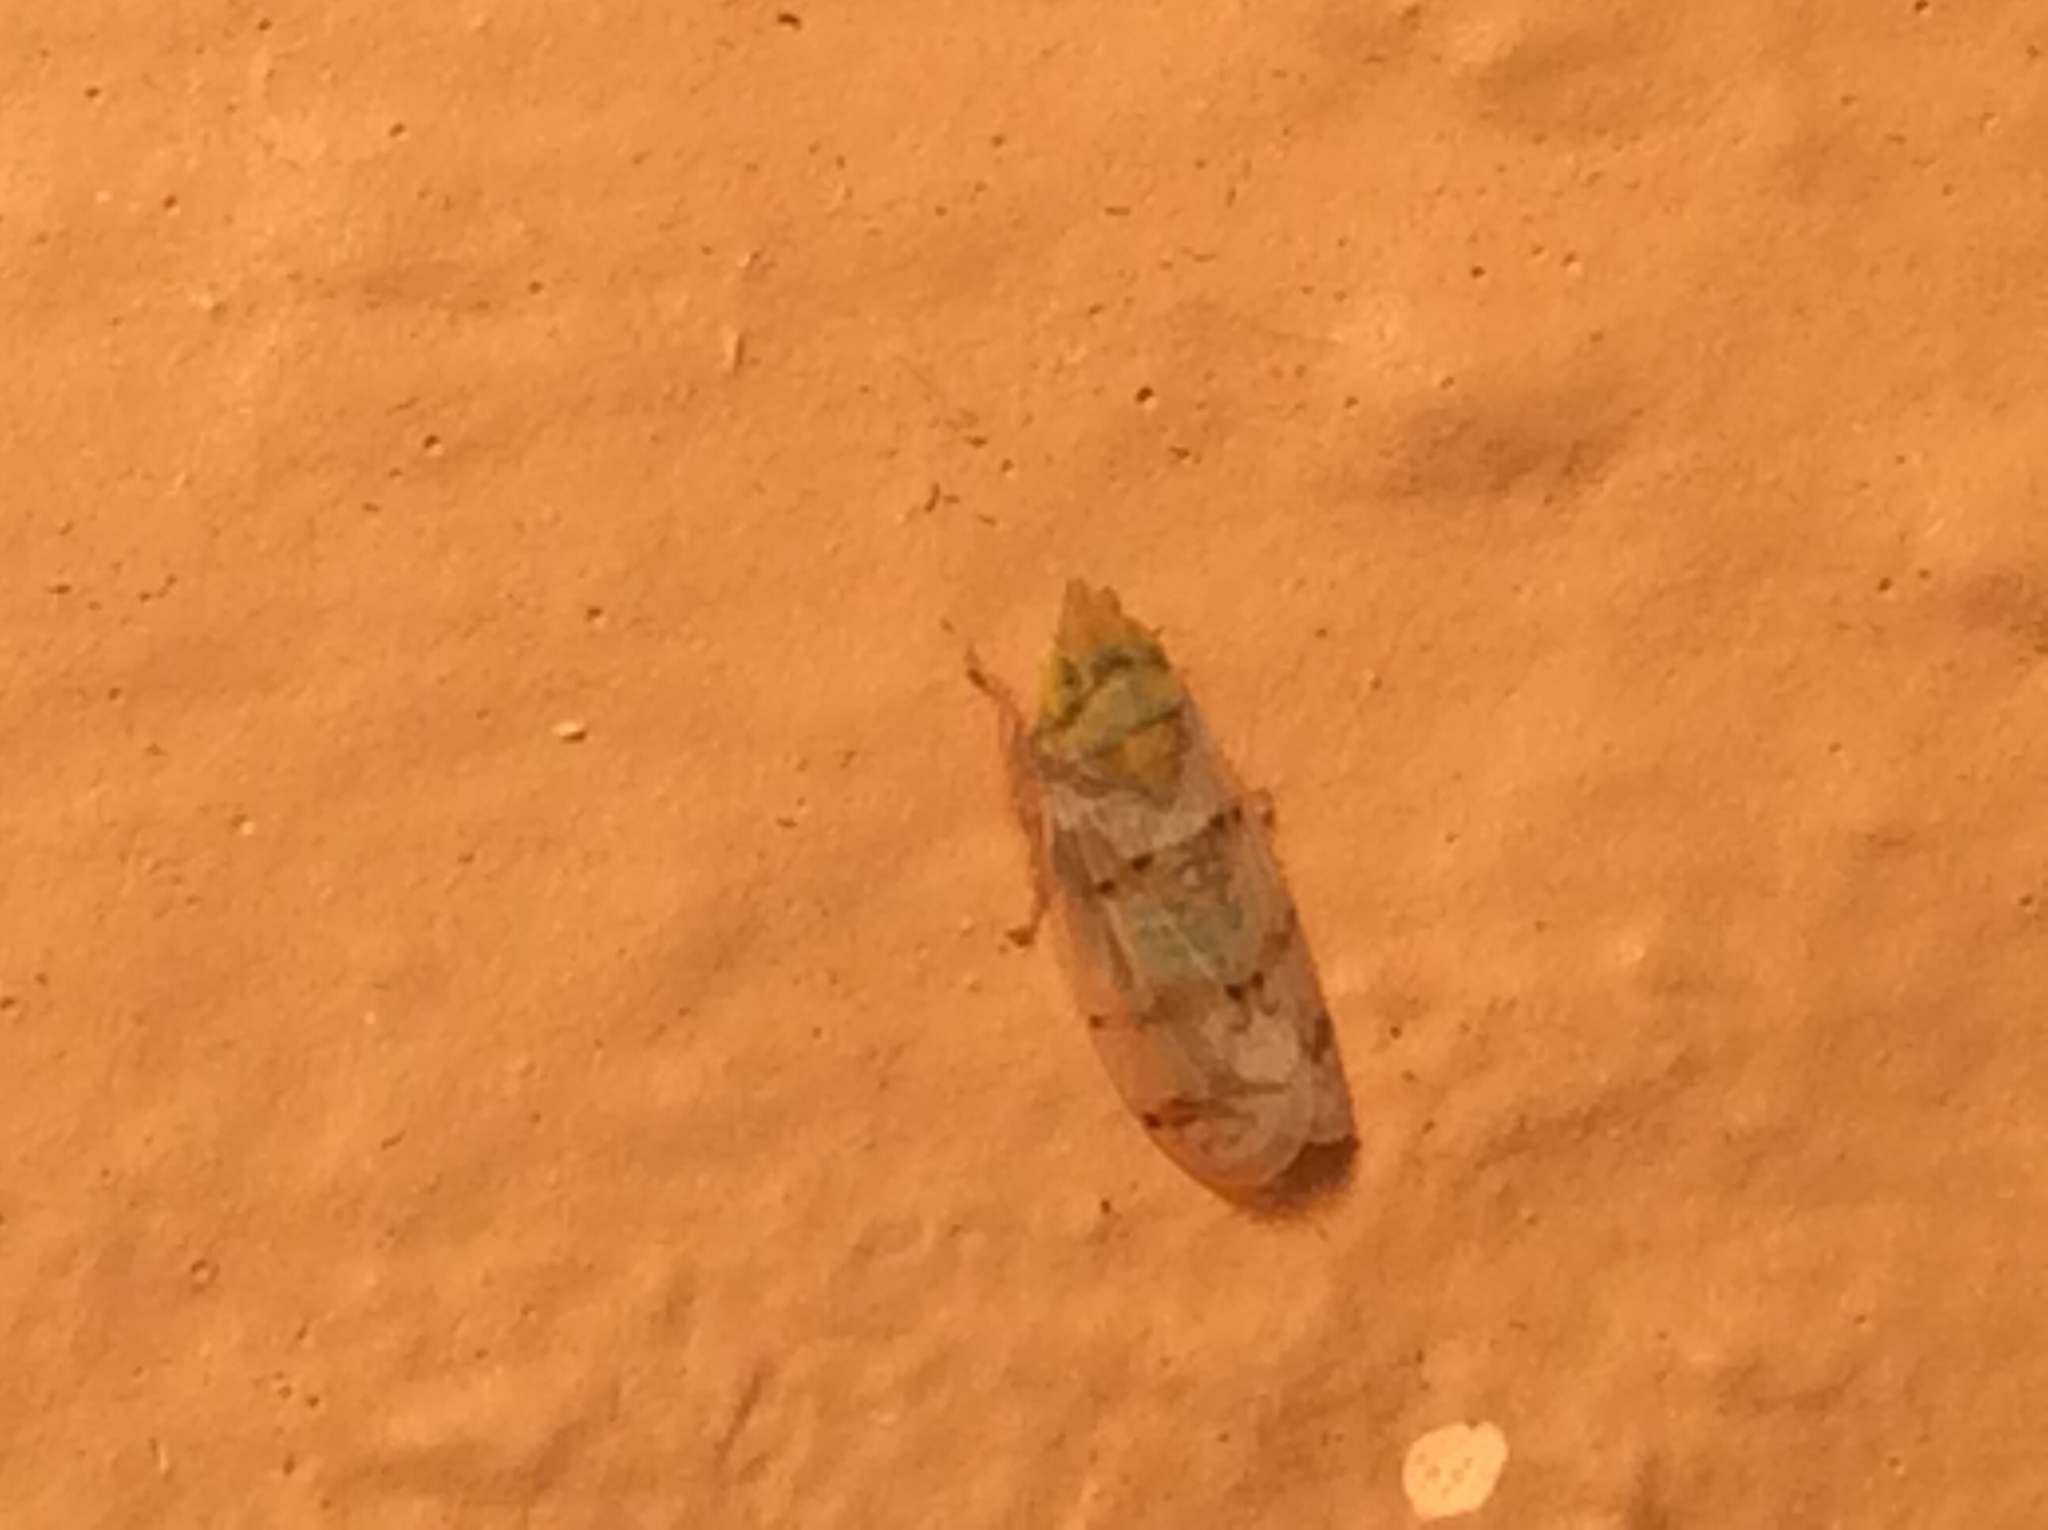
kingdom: Animalia
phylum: Arthropoda
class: Insecta
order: Hemiptera
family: Cicadellidae
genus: Japananus
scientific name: Japananus hyalinus
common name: The japanese maple leafhopper
